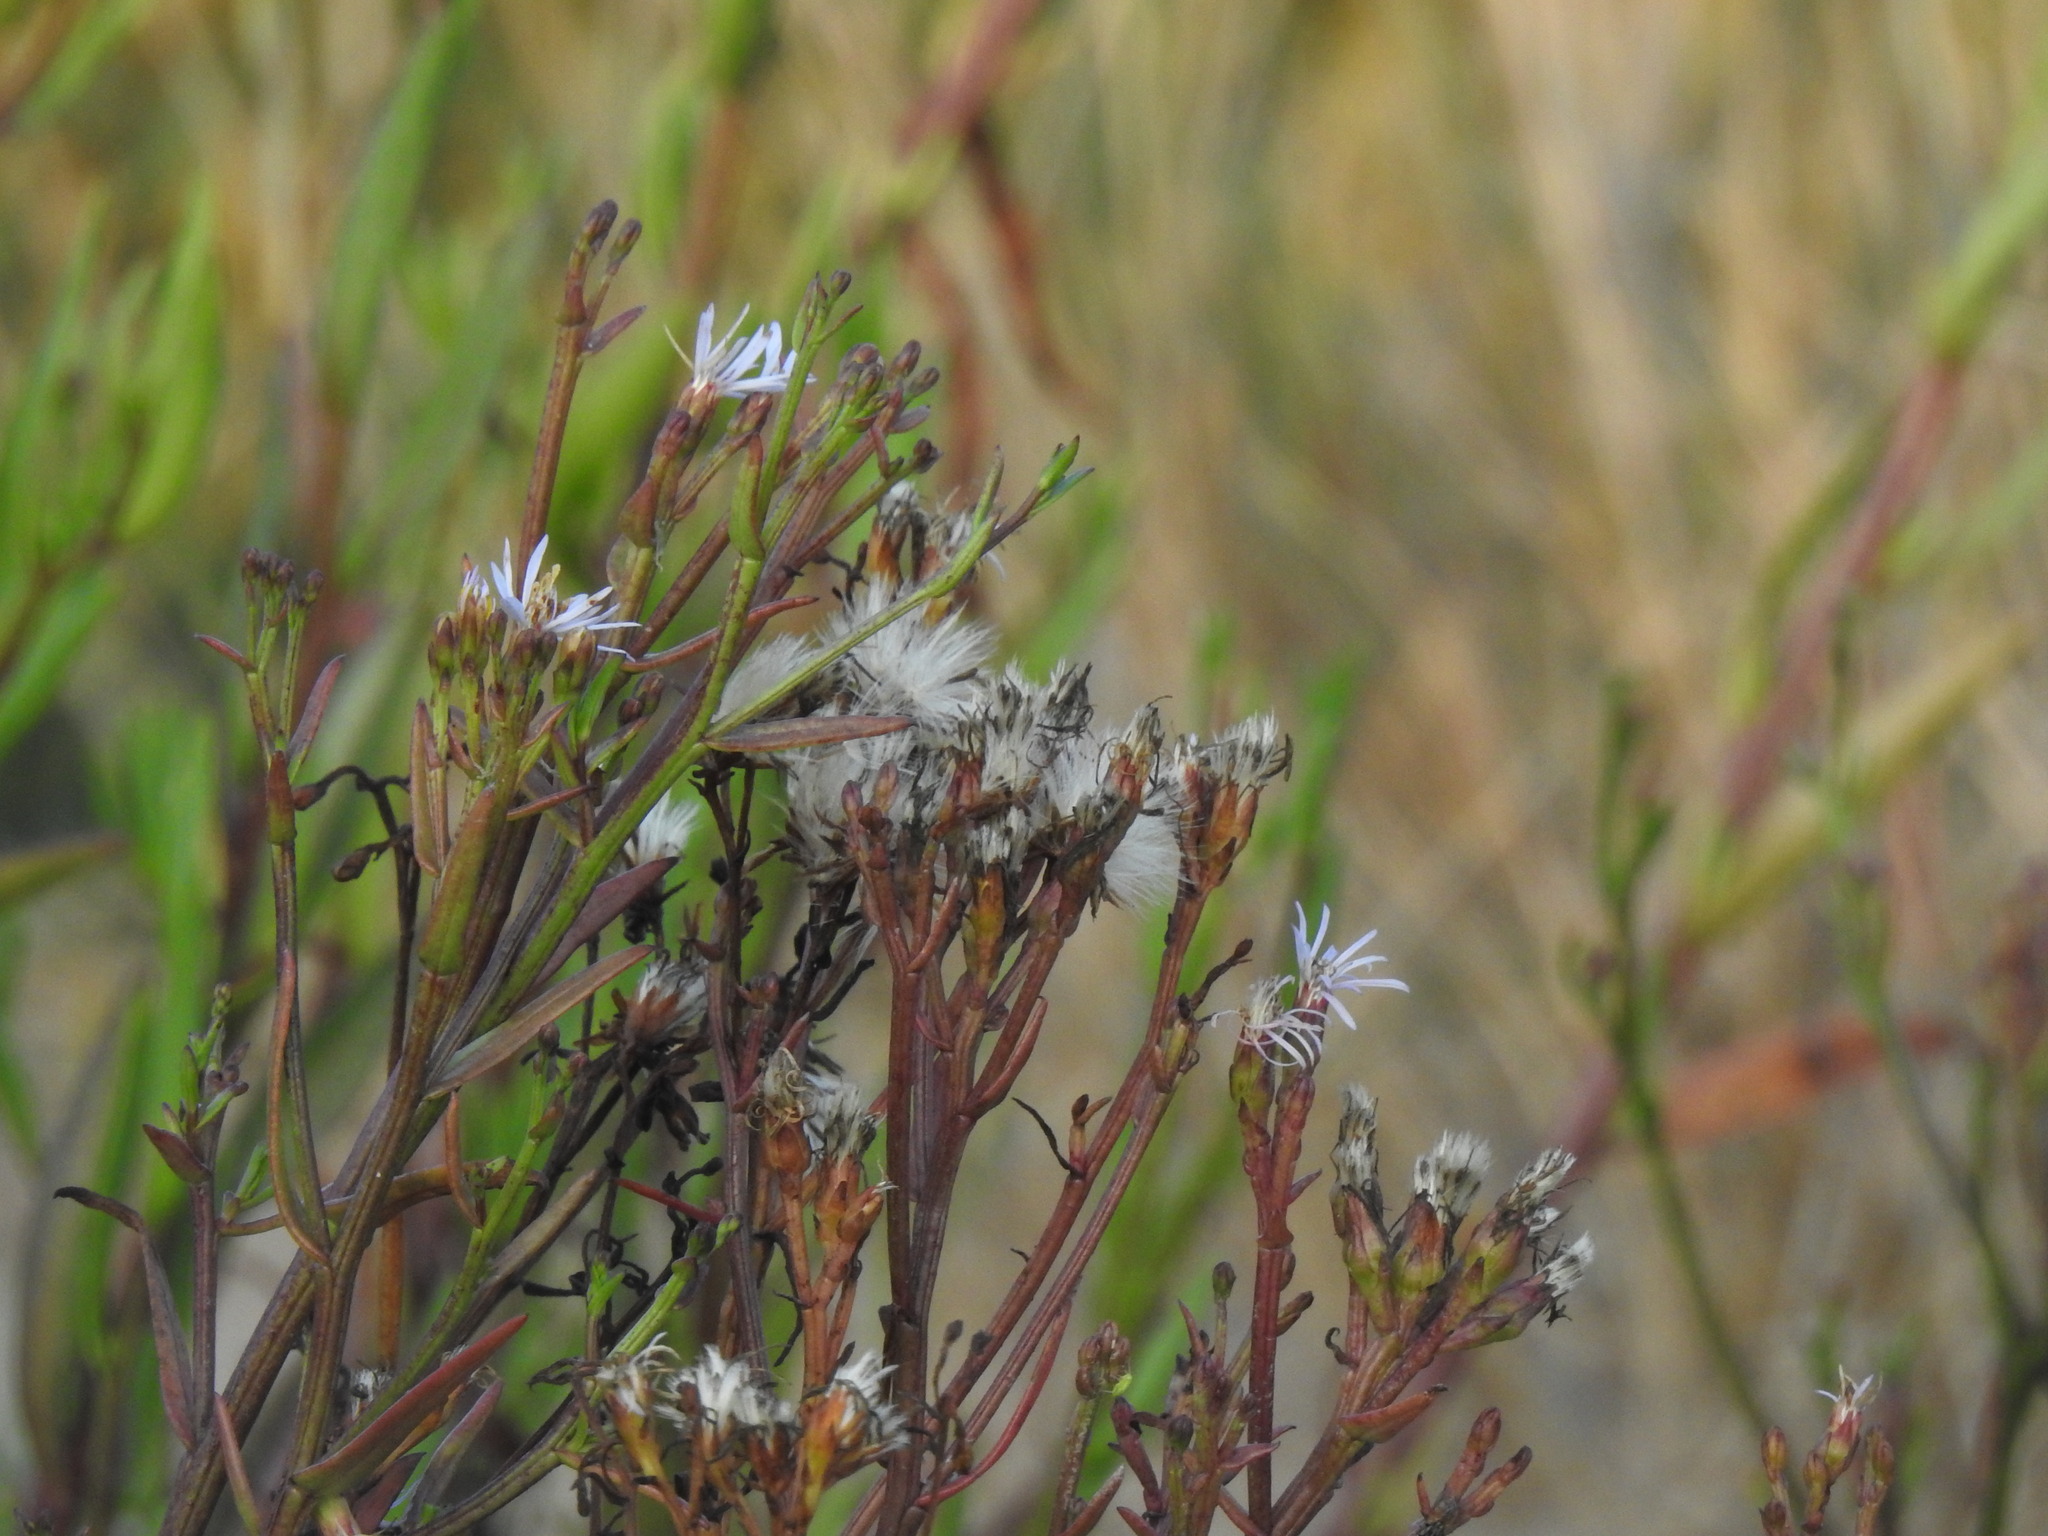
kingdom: Plantae
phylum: Tracheophyta
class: Magnoliopsida
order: Asterales
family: Asteraceae
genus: Tripolium
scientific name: Tripolium pannonicum
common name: Sea aster
